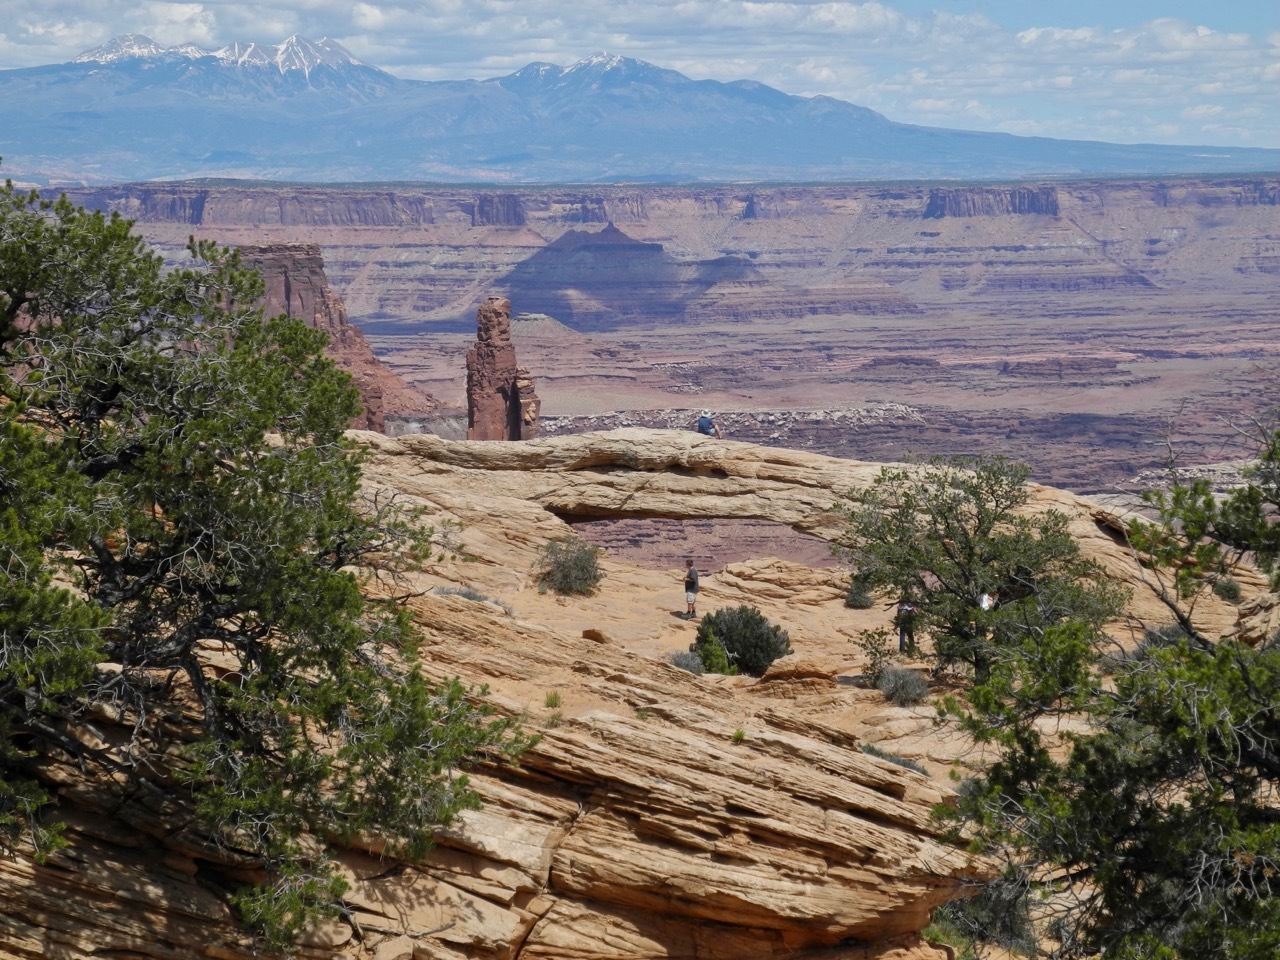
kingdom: Plantae
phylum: Tracheophyta
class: Pinopsida
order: Pinales
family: Pinaceae
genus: Pinus
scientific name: Pinus edulis
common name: Colorado pinyon
